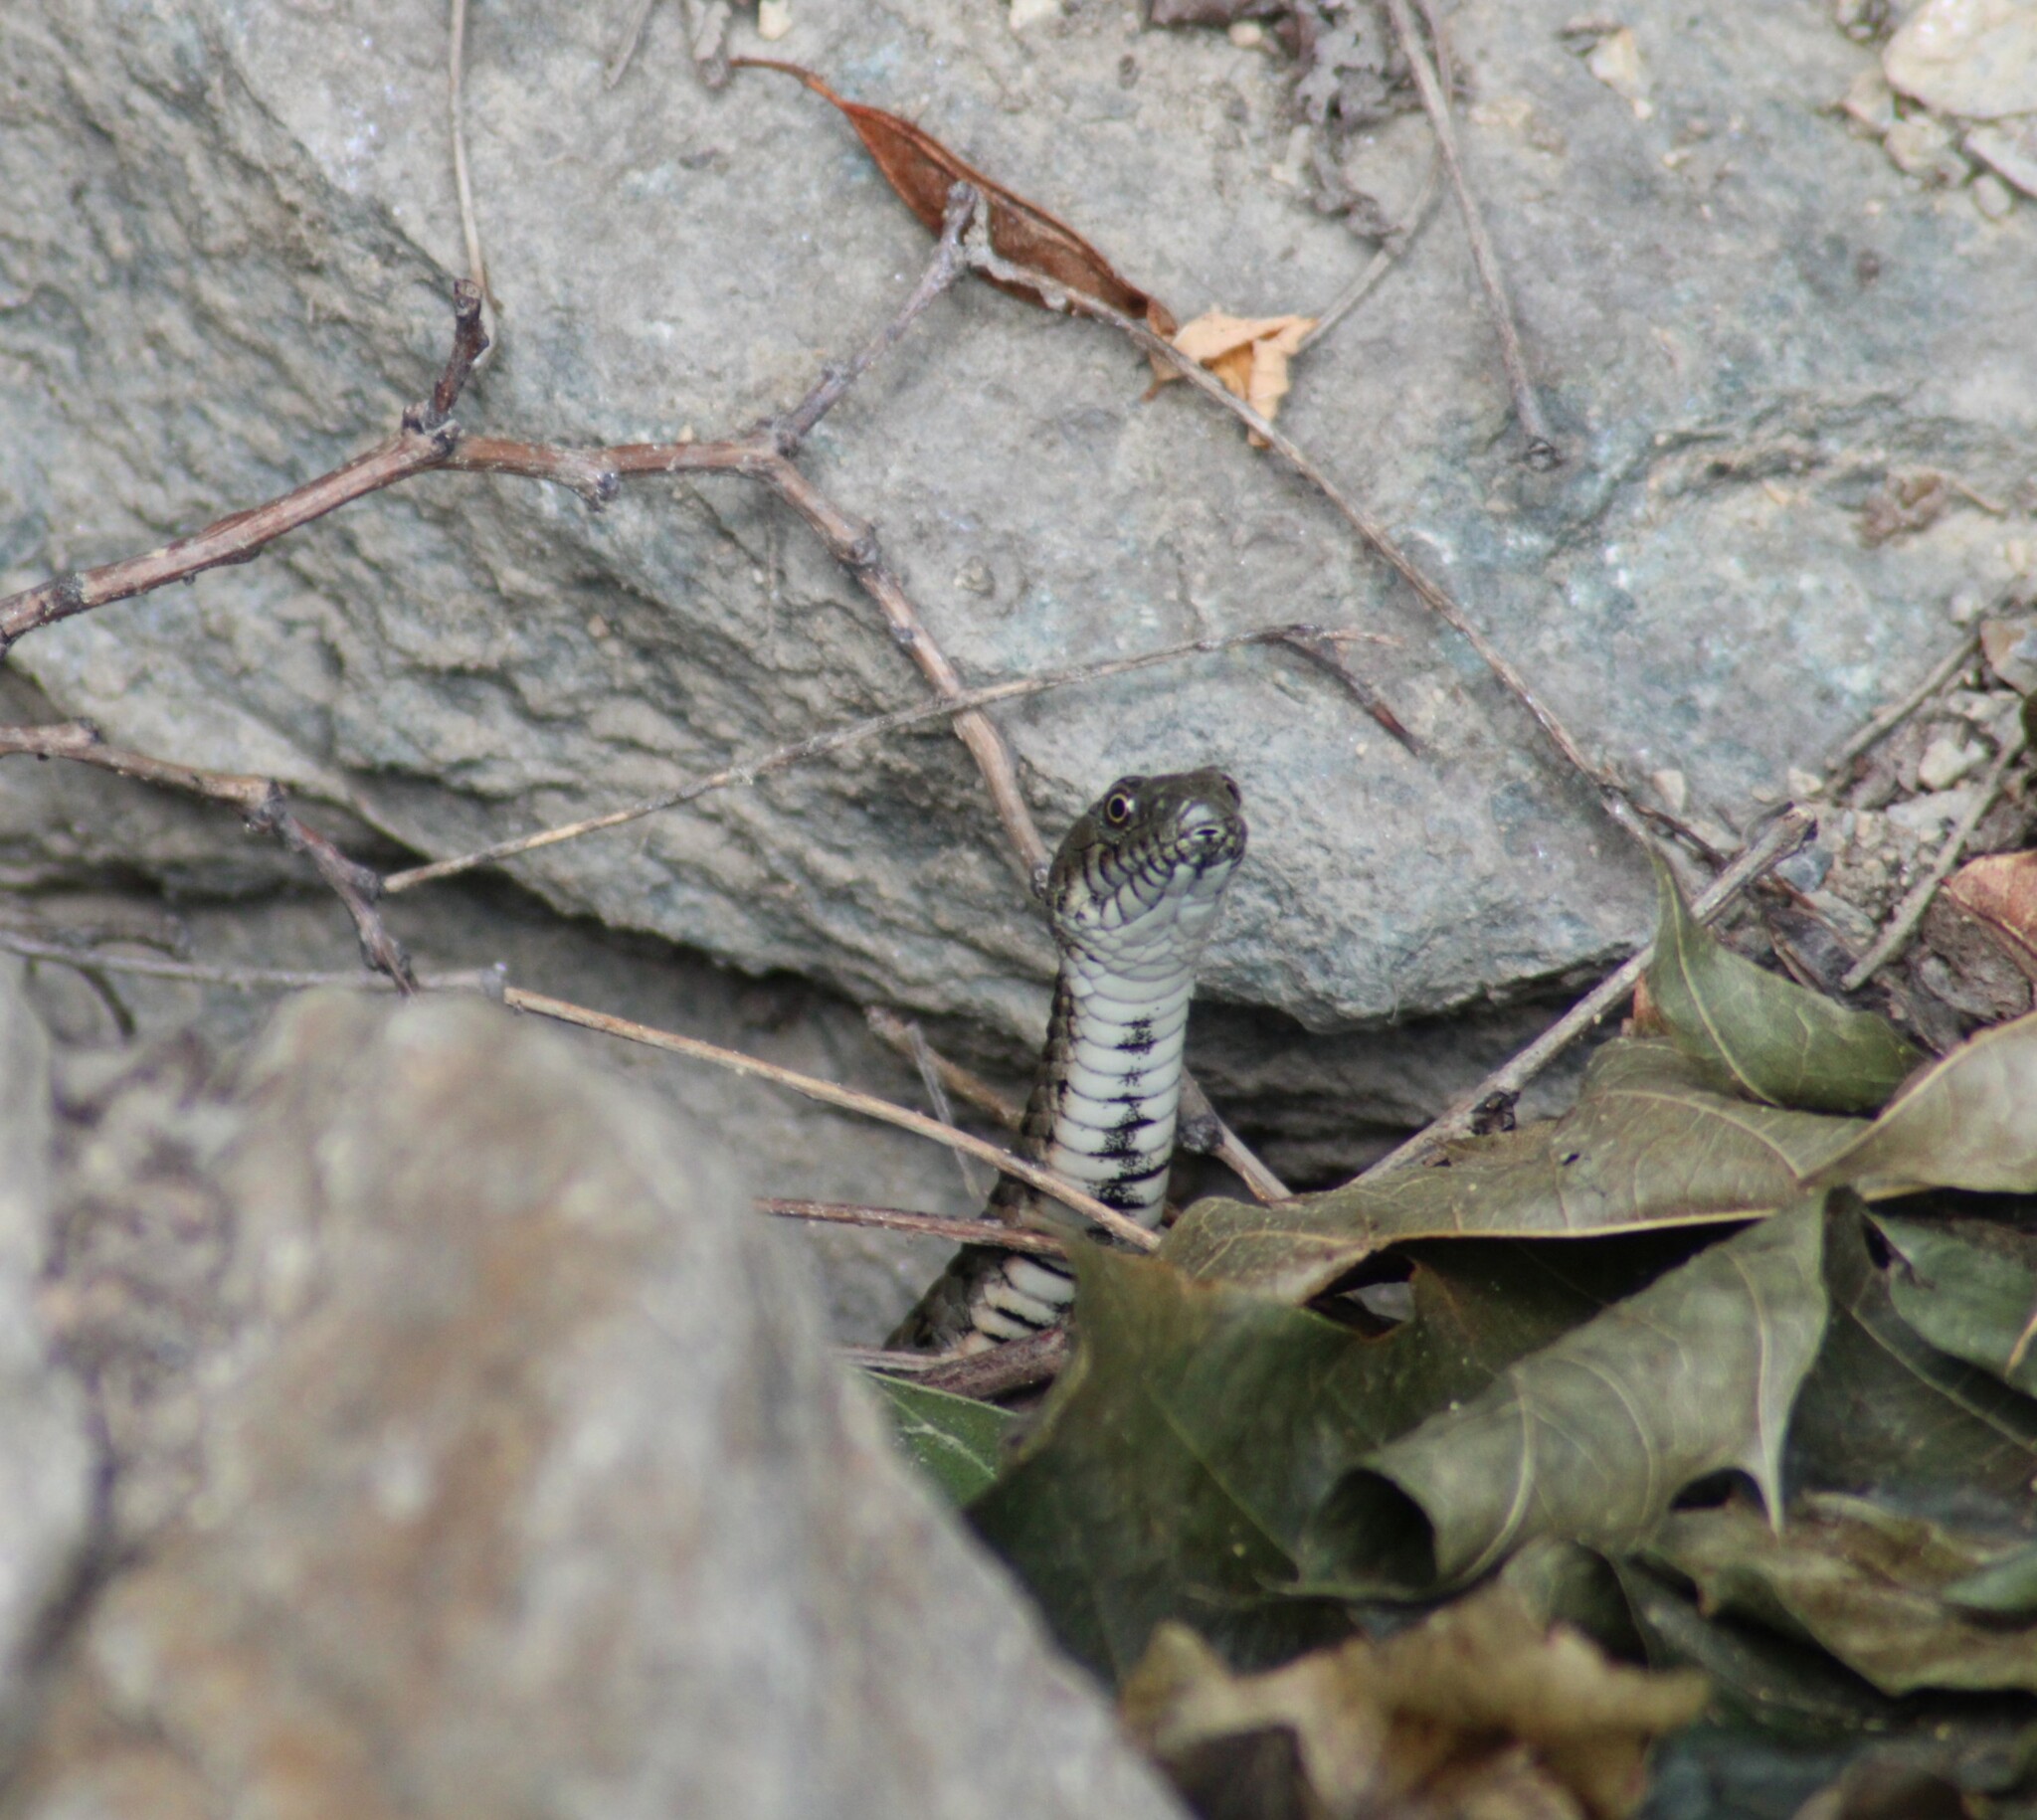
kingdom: Animalia
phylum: Chordata
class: Squamata
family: Colubridae
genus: Natrix
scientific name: Natrix tessellata
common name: Dice snake
